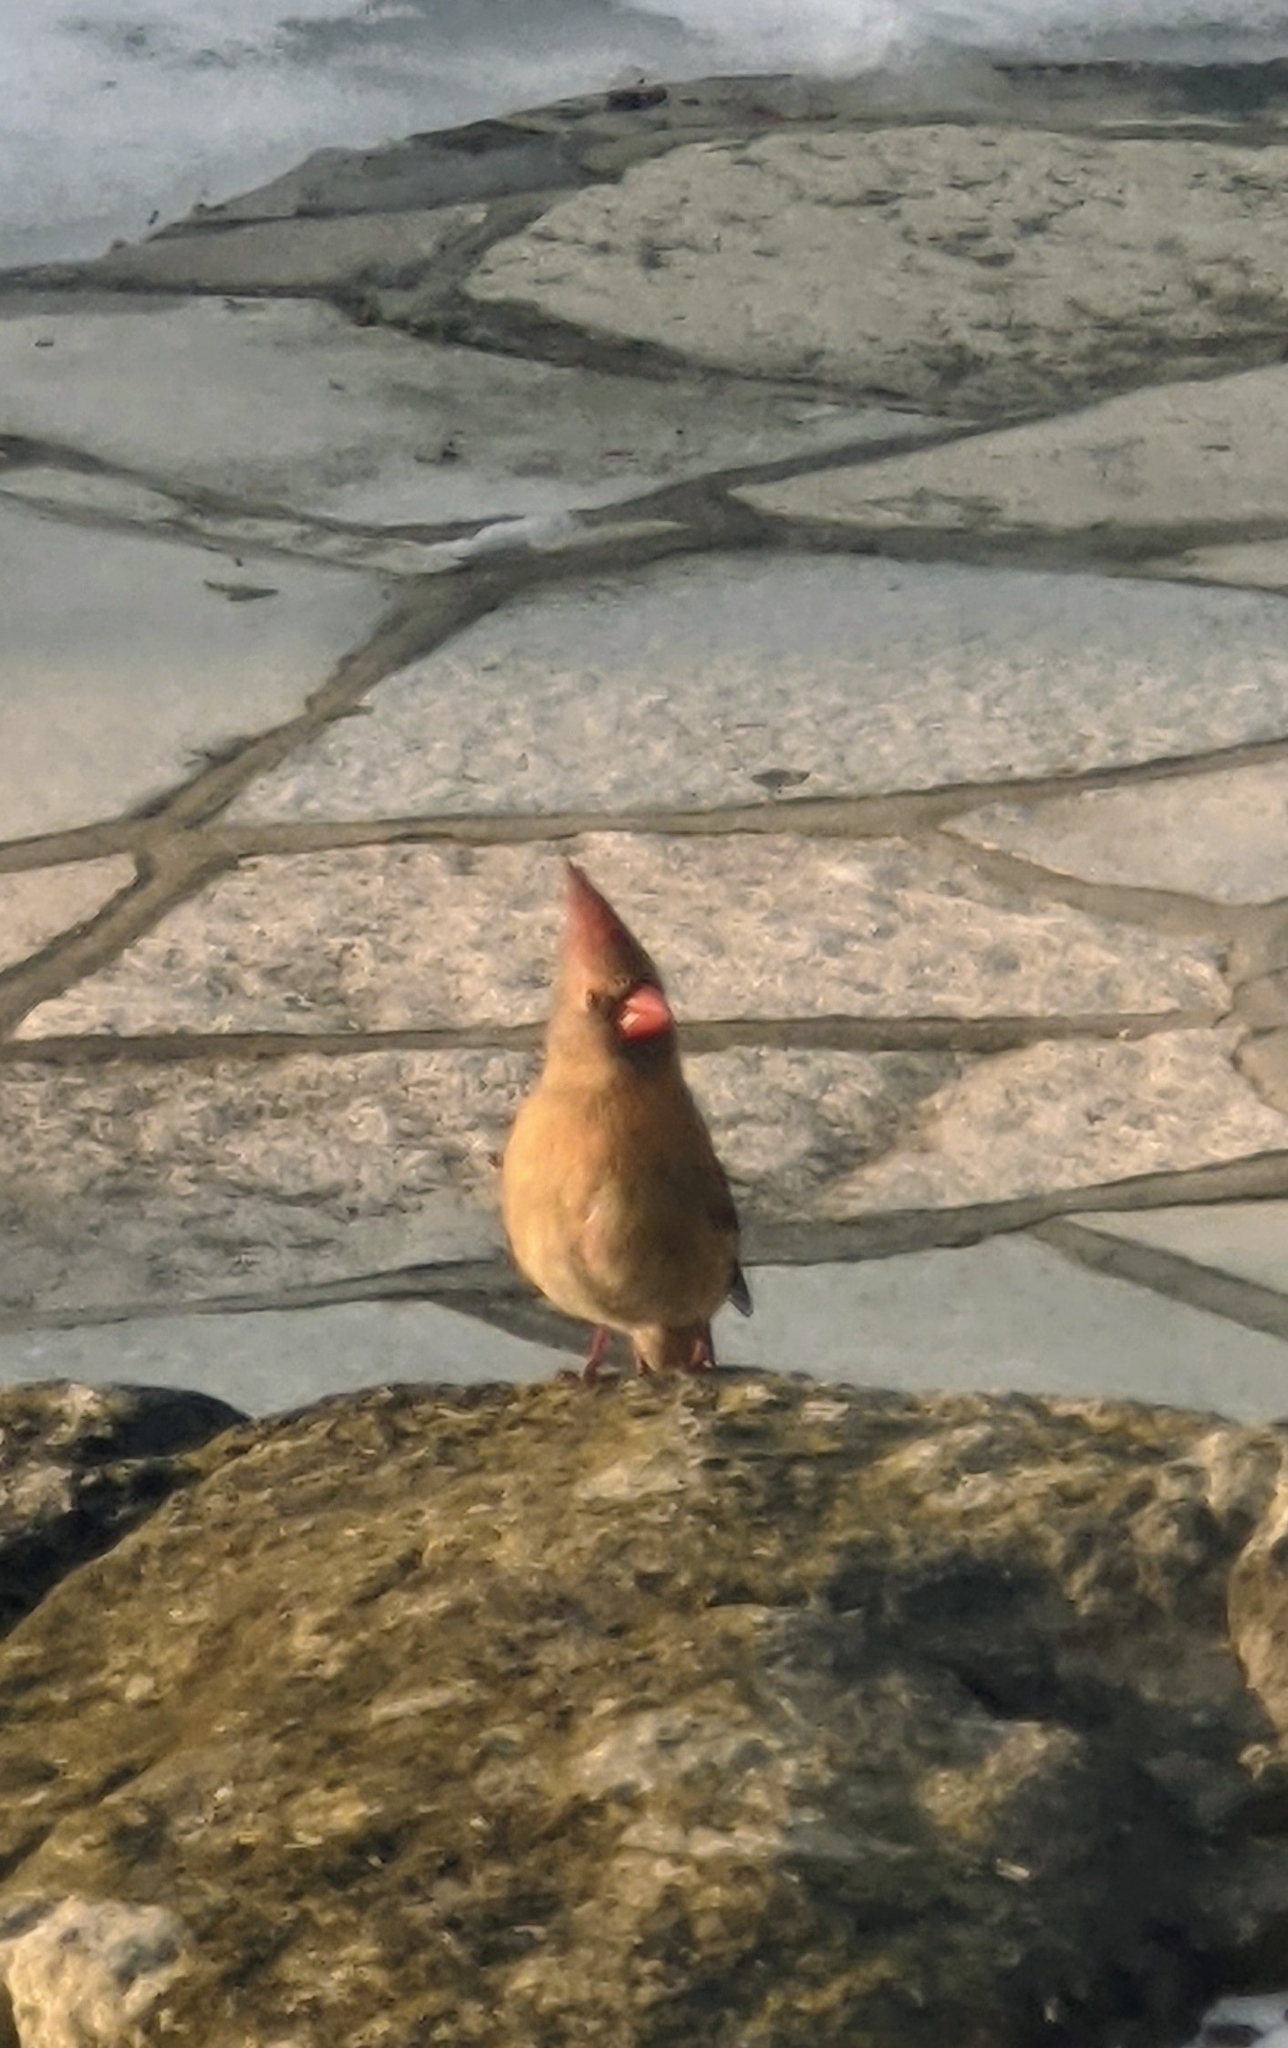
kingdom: Animalia
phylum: Chordata
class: Aves
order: Passeriformes
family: Cardinalidae
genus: Cardinalis
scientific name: Cardinalis cardinalis
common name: Northern cardinal
